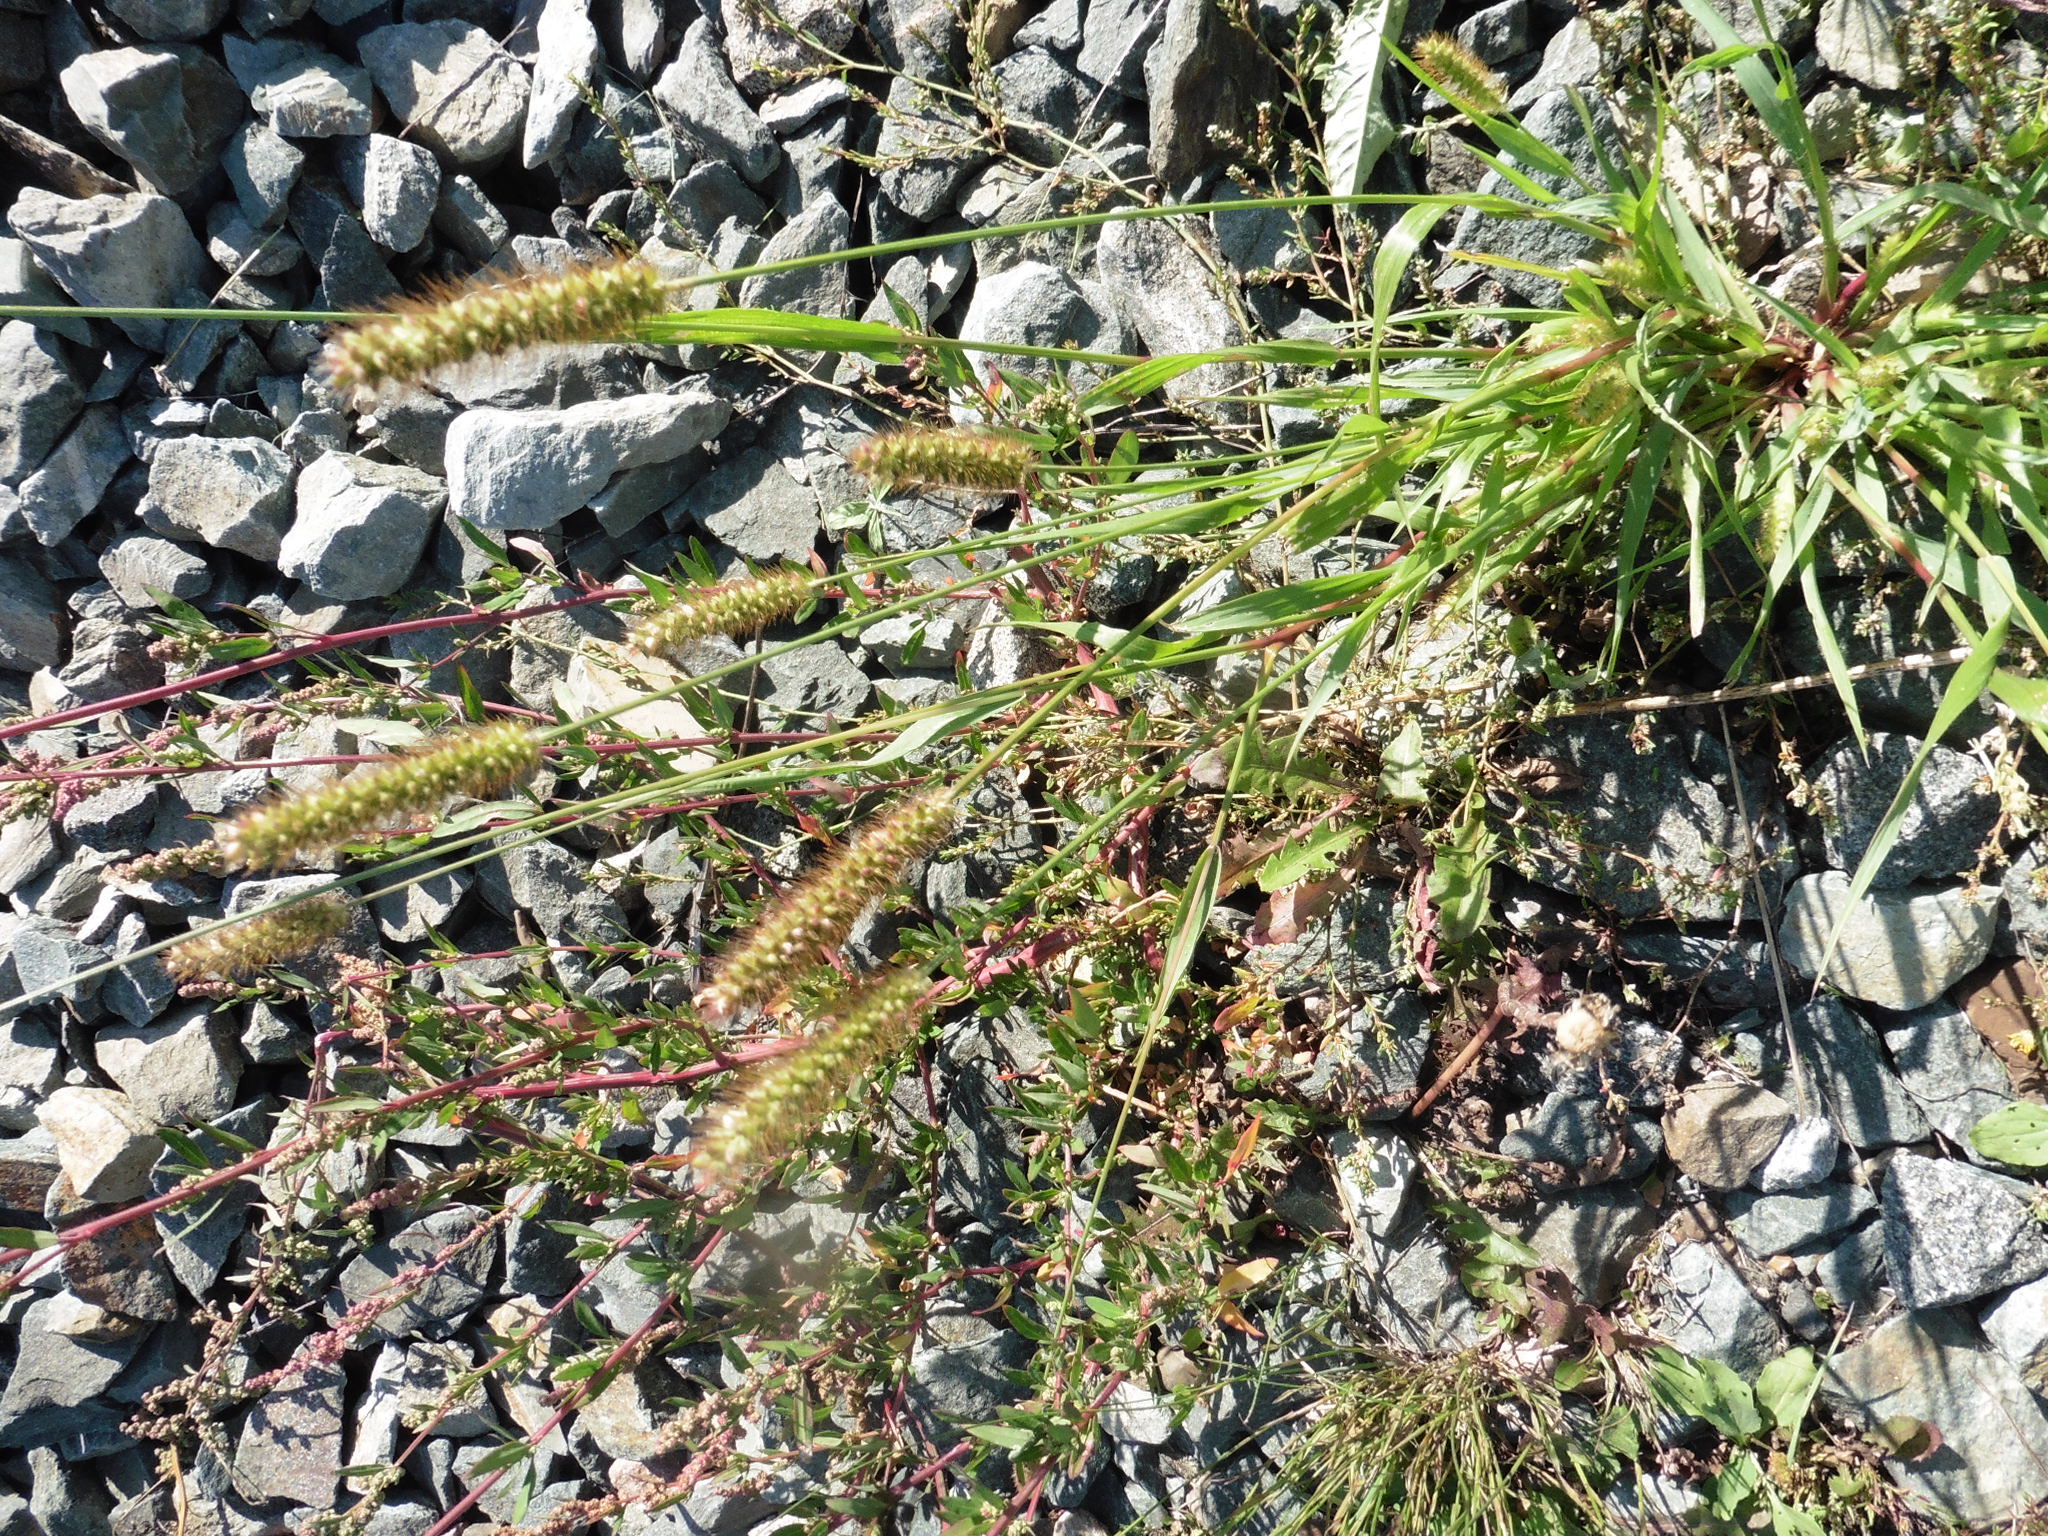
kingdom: Plantae
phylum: Tracheophyta
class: Liliopsida
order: Poales
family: Poaceae
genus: Setaria
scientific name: Setaria pumila
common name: Yellow bristle-grass
